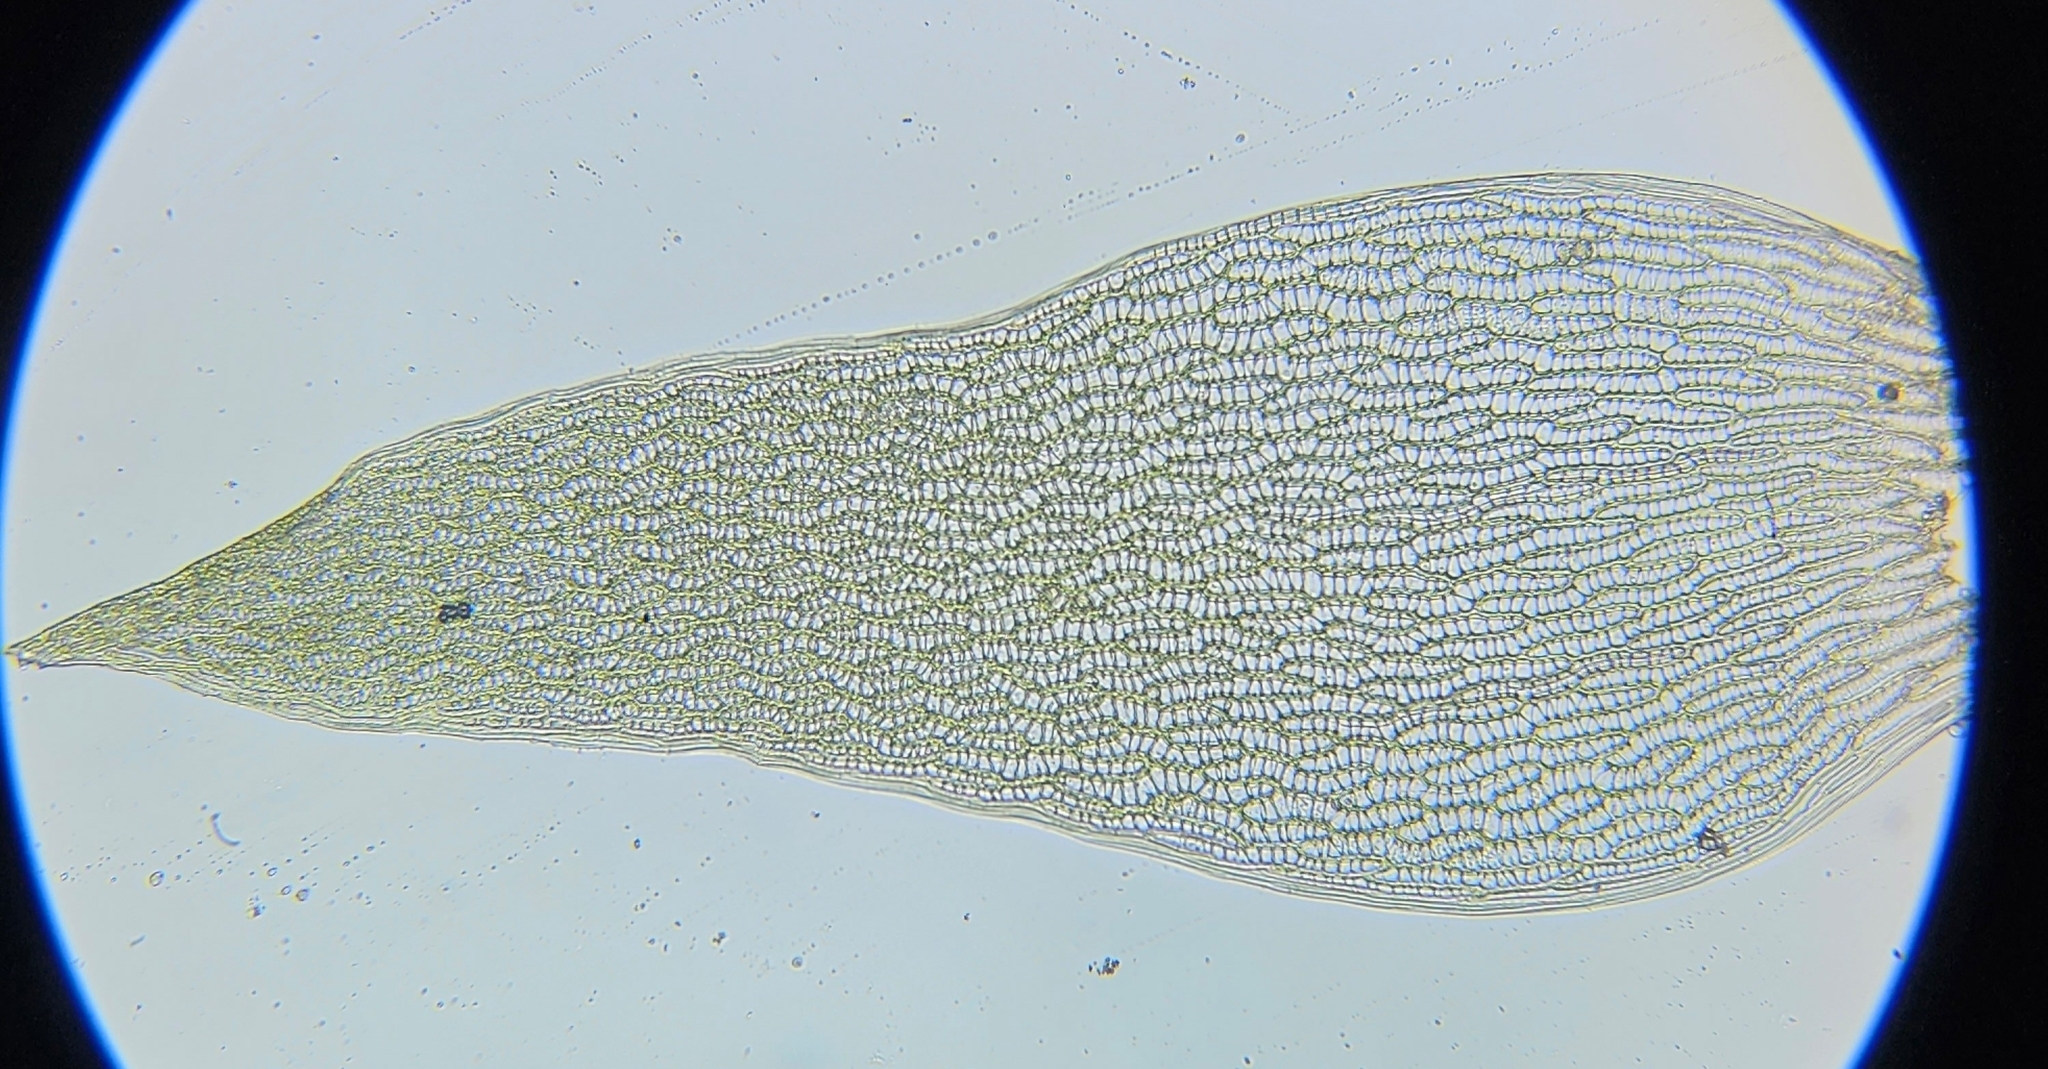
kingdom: Plantae
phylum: Bryophyta
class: Sphagnopsida
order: Sphagnales
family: Sphagnaceae
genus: Sphagnum
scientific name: Sphagnum fallax
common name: Flat-top peat moss
